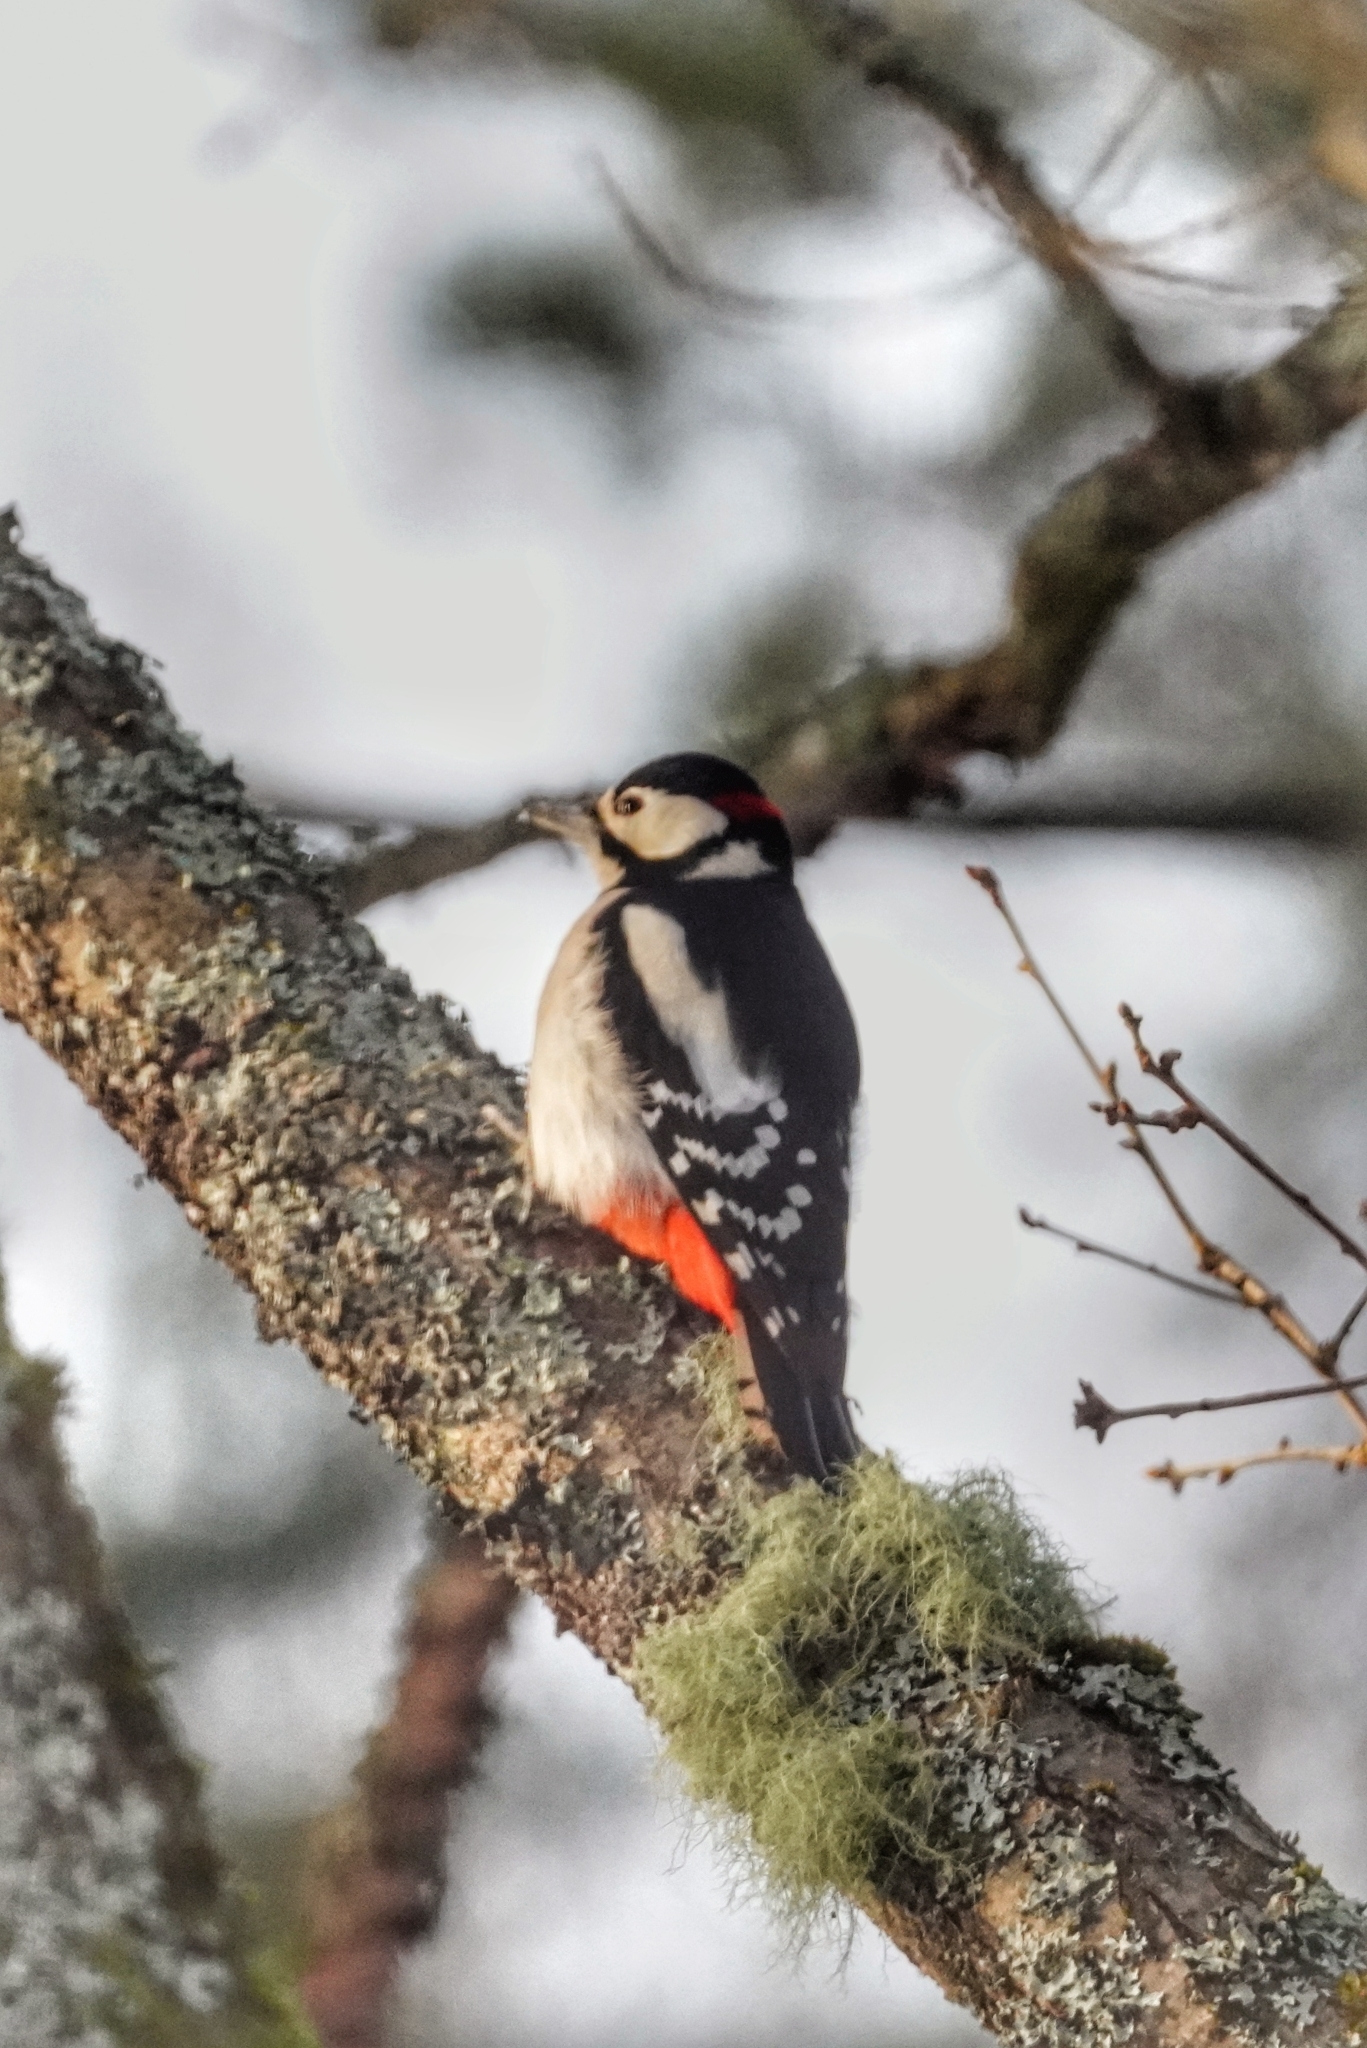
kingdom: Animalia
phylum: Chordata
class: Aves
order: Piciformes
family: Picidae
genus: Dendrocopos
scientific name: Dendrocopos major
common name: Great spotted woodpecker
